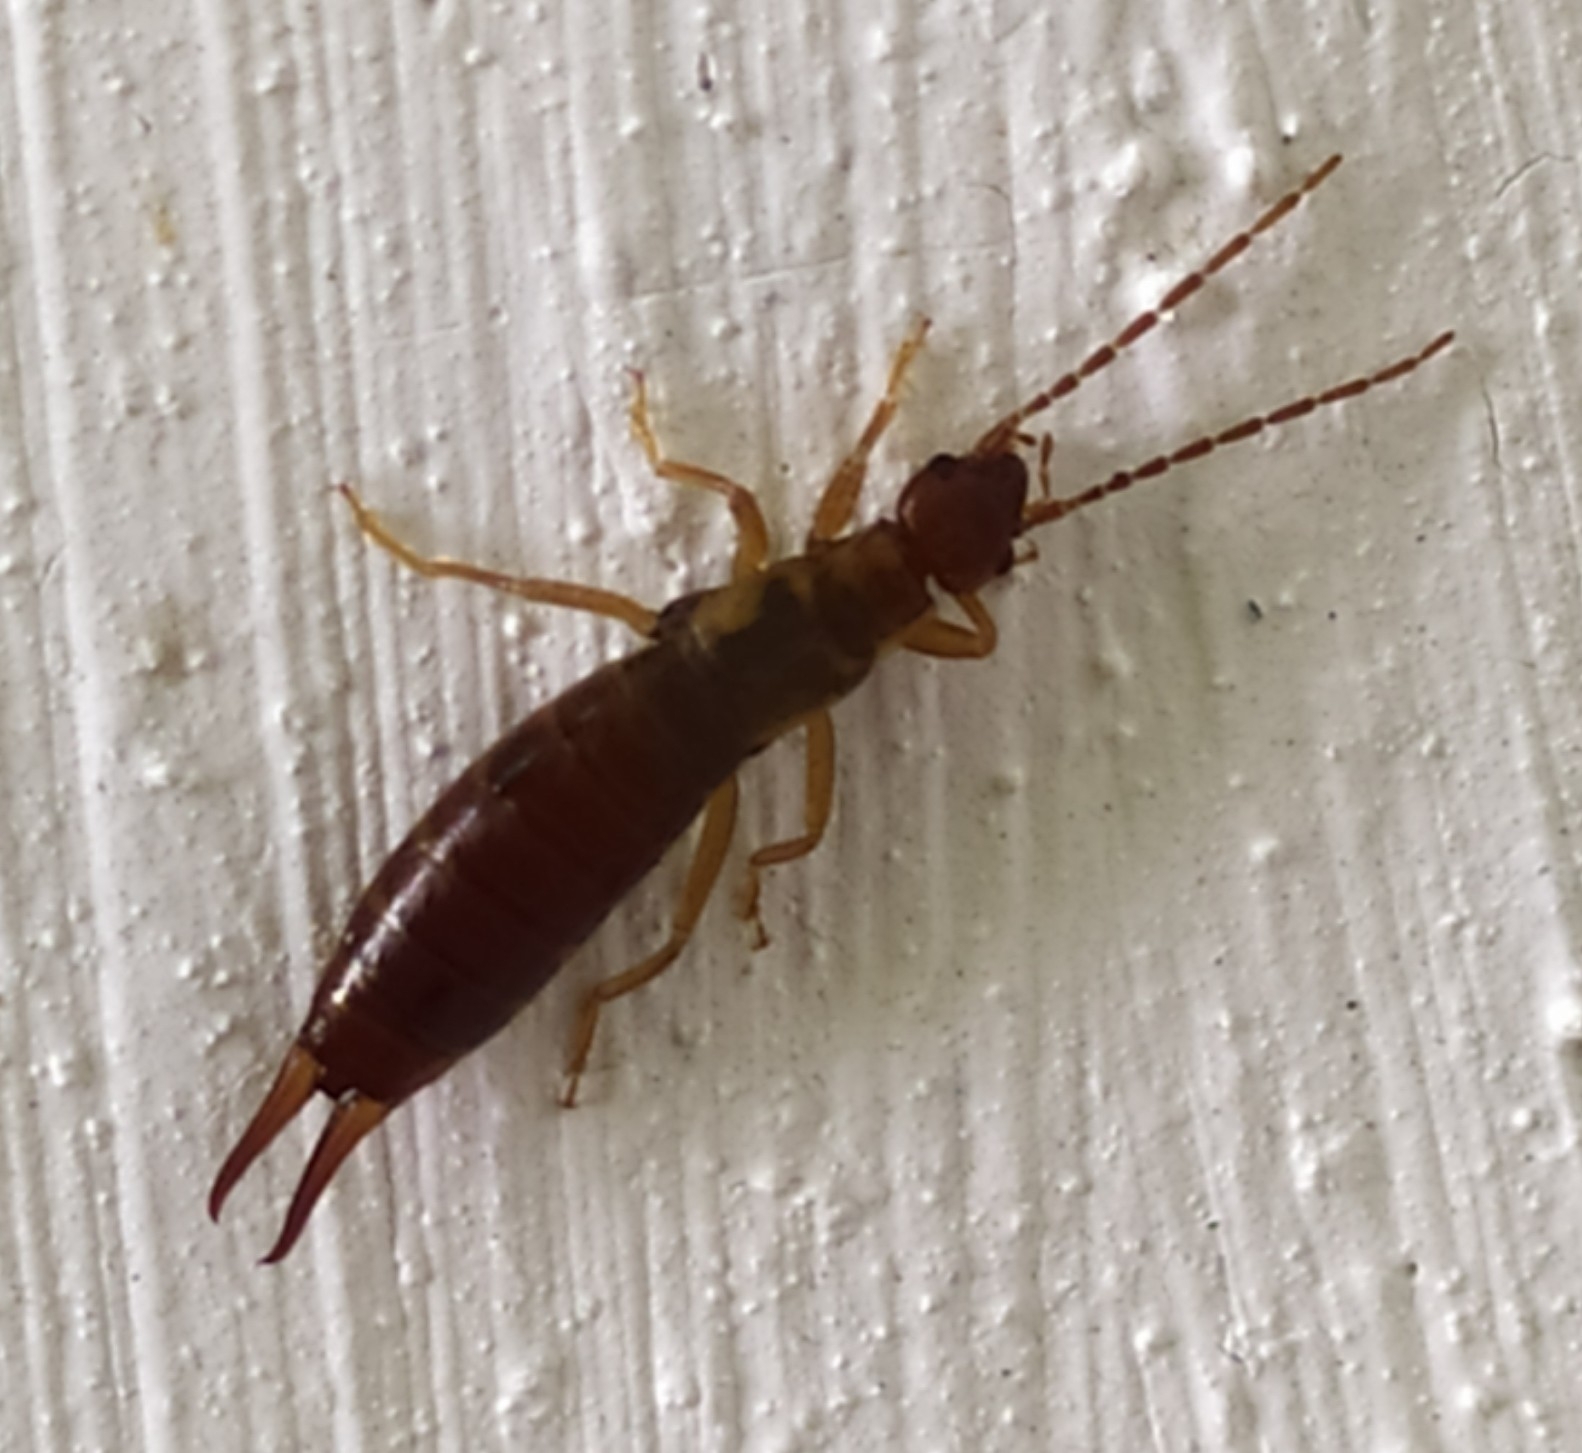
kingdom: Animalia
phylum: Arthropoda
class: Insecta
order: Dermaptera
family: Forficulidae
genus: Forficula
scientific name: Forficula tomis
